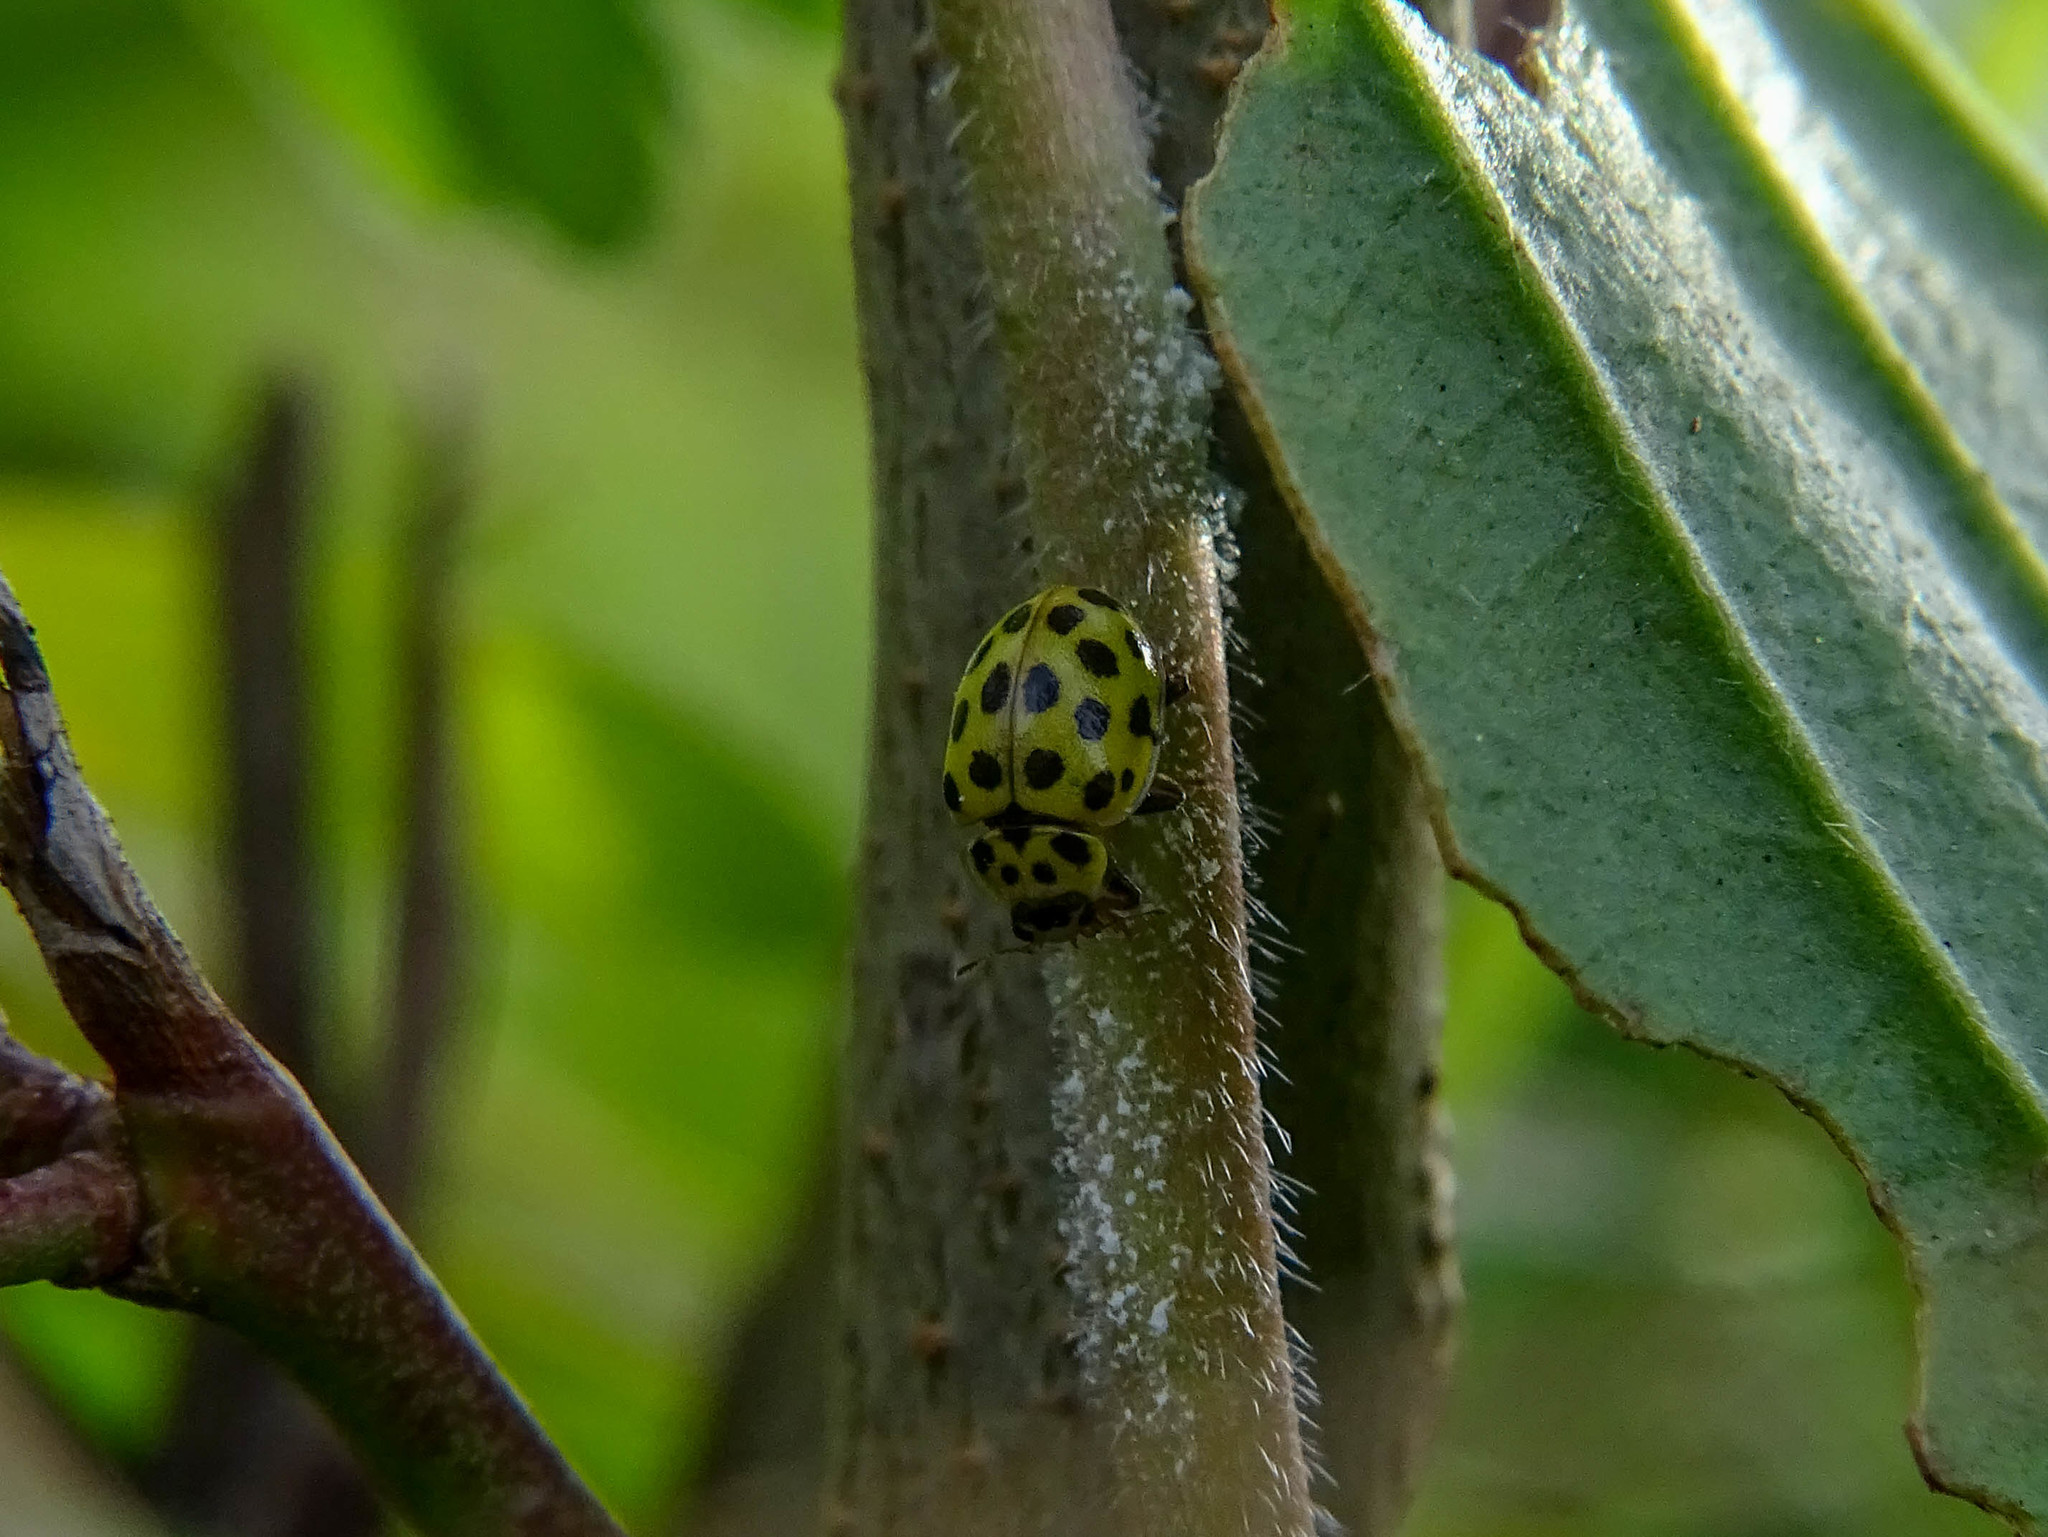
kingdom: Animalia
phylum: Arthropoda
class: Insecta
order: Coleoptera
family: Coccinellidae
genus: Psyllobora
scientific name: Psyllobora vigintiduopunctata
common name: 22-spot ladybird
